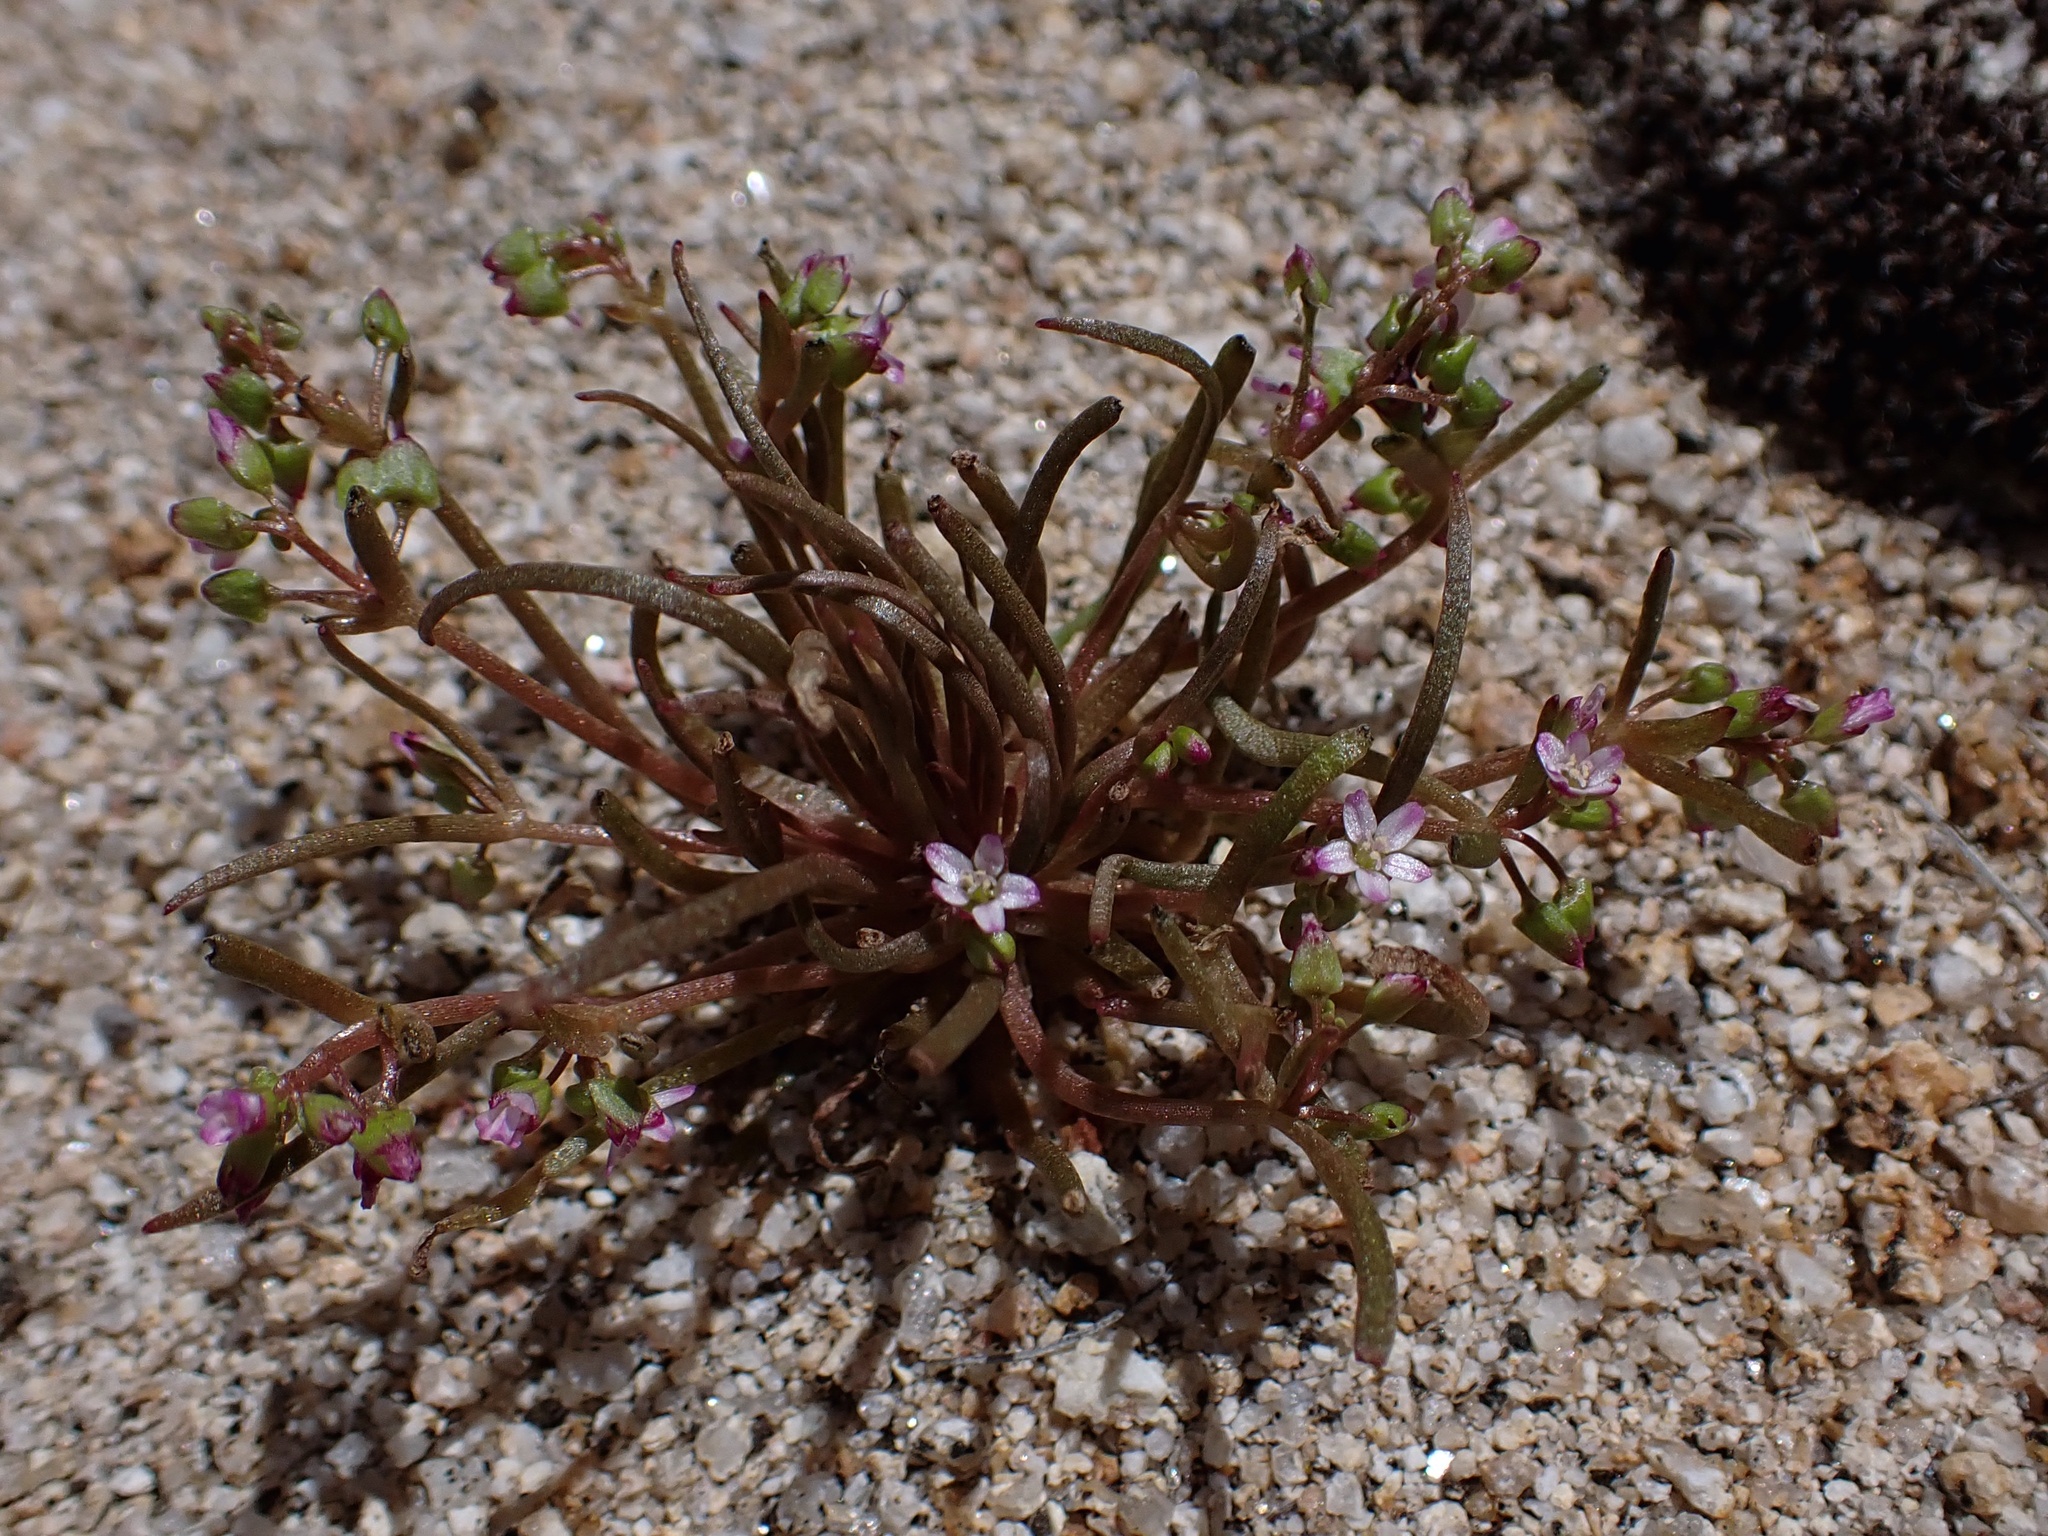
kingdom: Plantae
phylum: Tracheophyta
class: Magnoliopsida
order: Caryophyllales
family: Montiaceae
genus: Claytonia
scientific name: Claytonia parviflora
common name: Indian-lettuce
